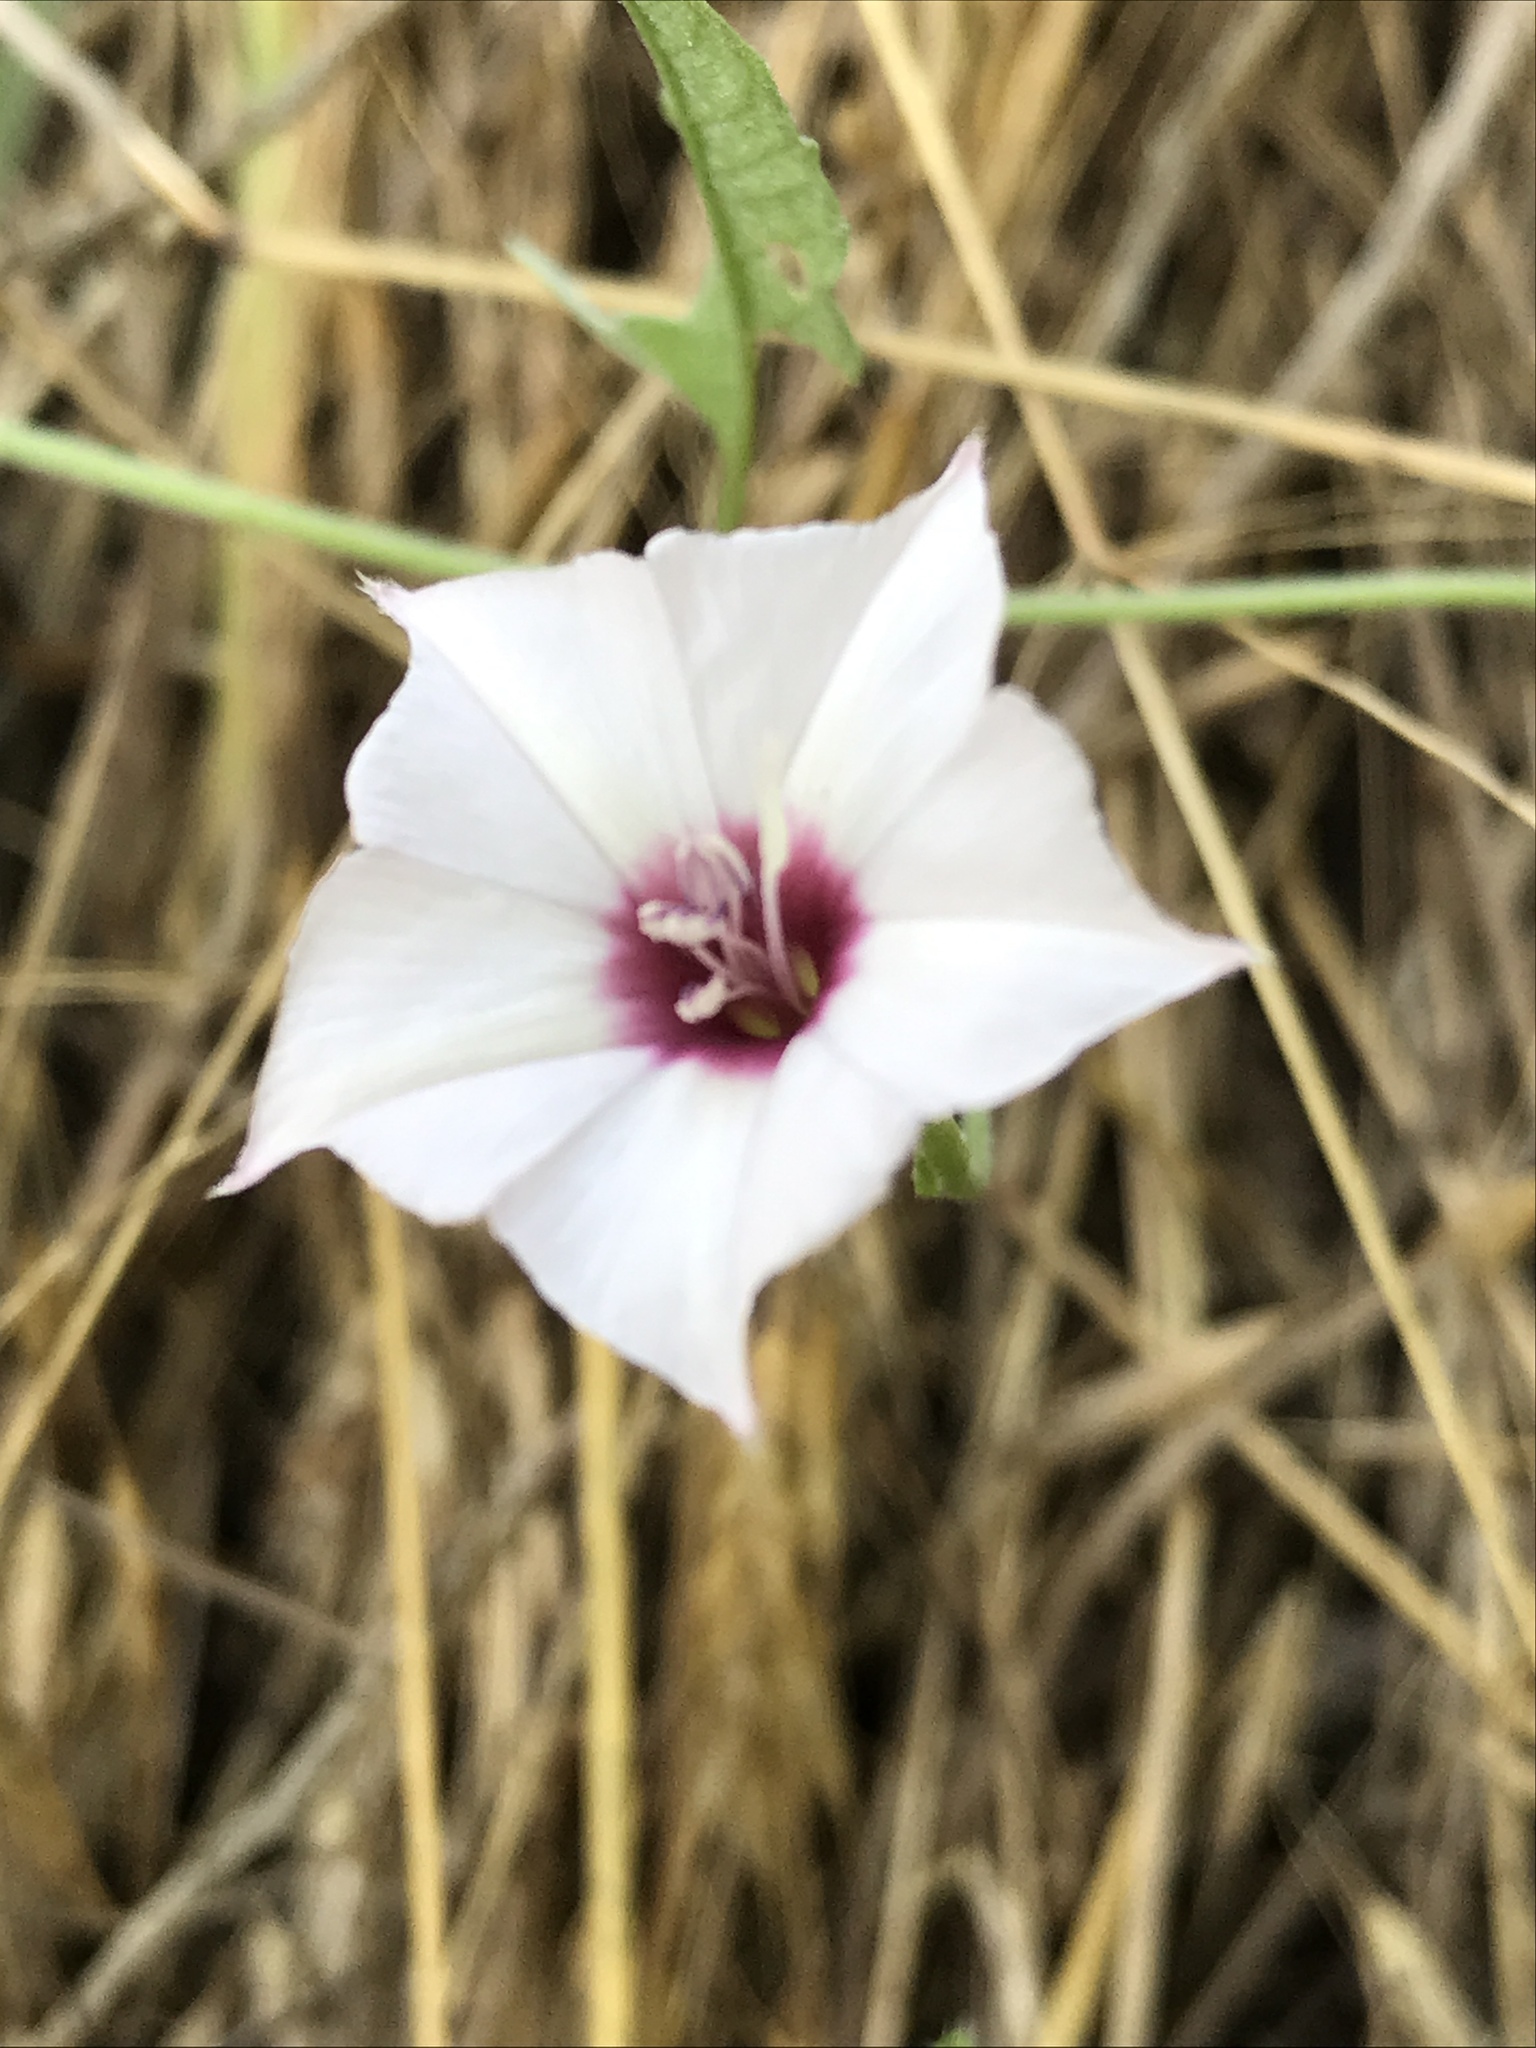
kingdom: Plantae
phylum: Tracheophyta
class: Magnoliopsida
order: Solanales
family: Convolvulaceae
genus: Convolvulus
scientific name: Convolvulus equitans
